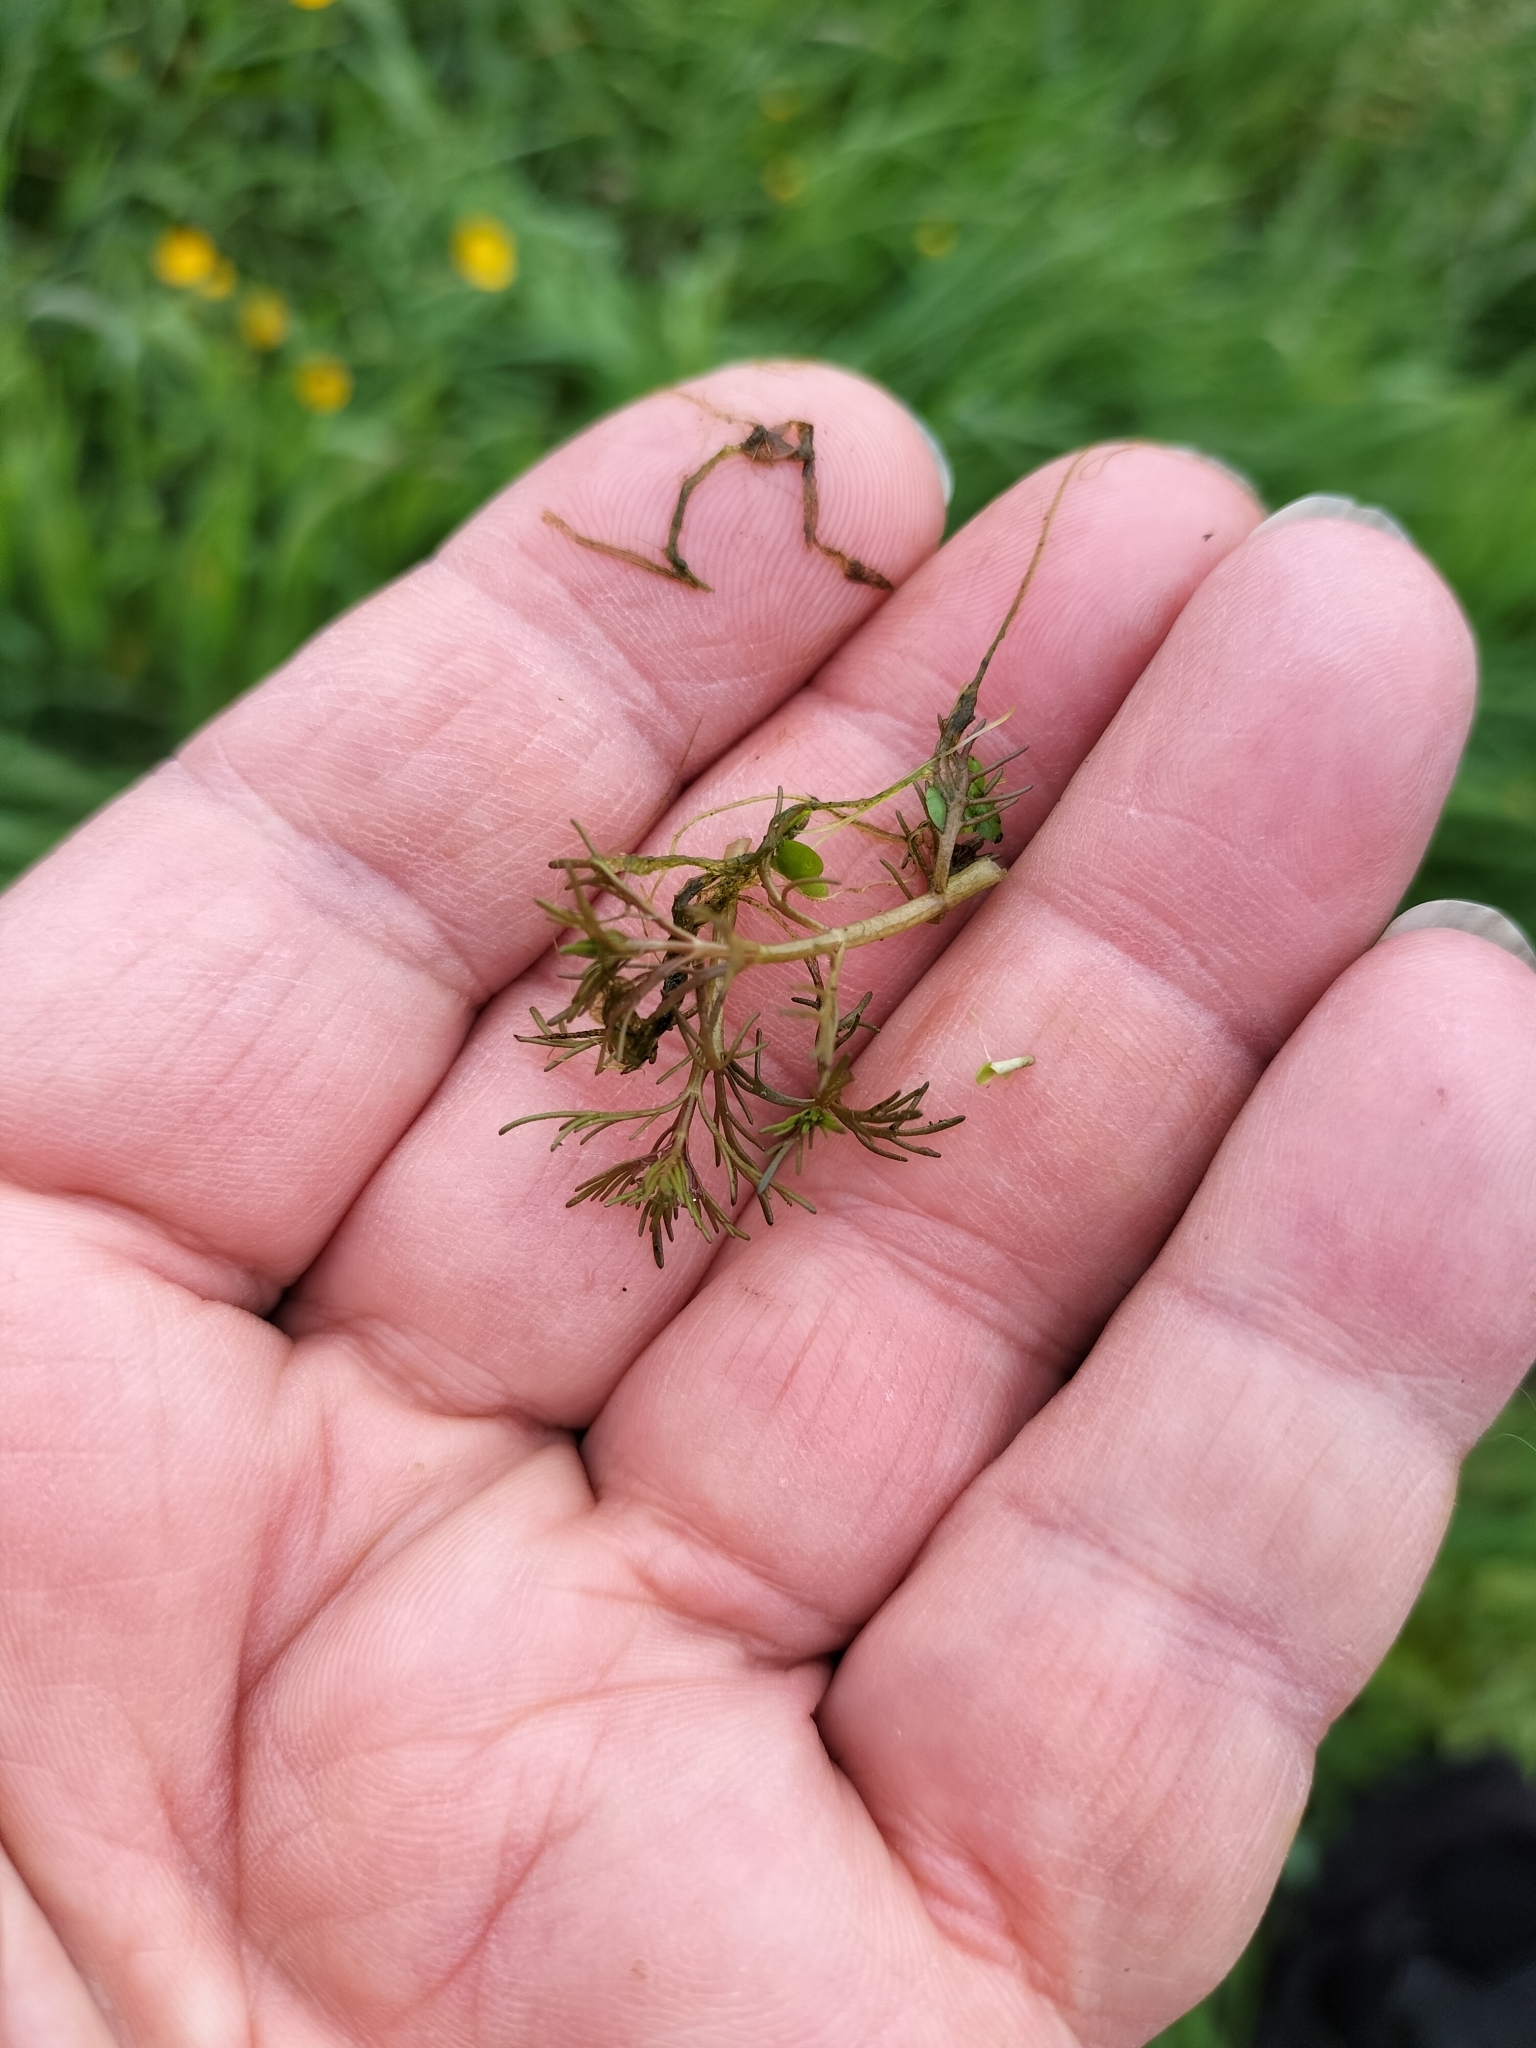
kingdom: Plantae
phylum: Tracheophyta
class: Magnoliopsida
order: Saxifragales
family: Haloragaceae
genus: Myriophyllum
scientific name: Myriophyllum propinquum
